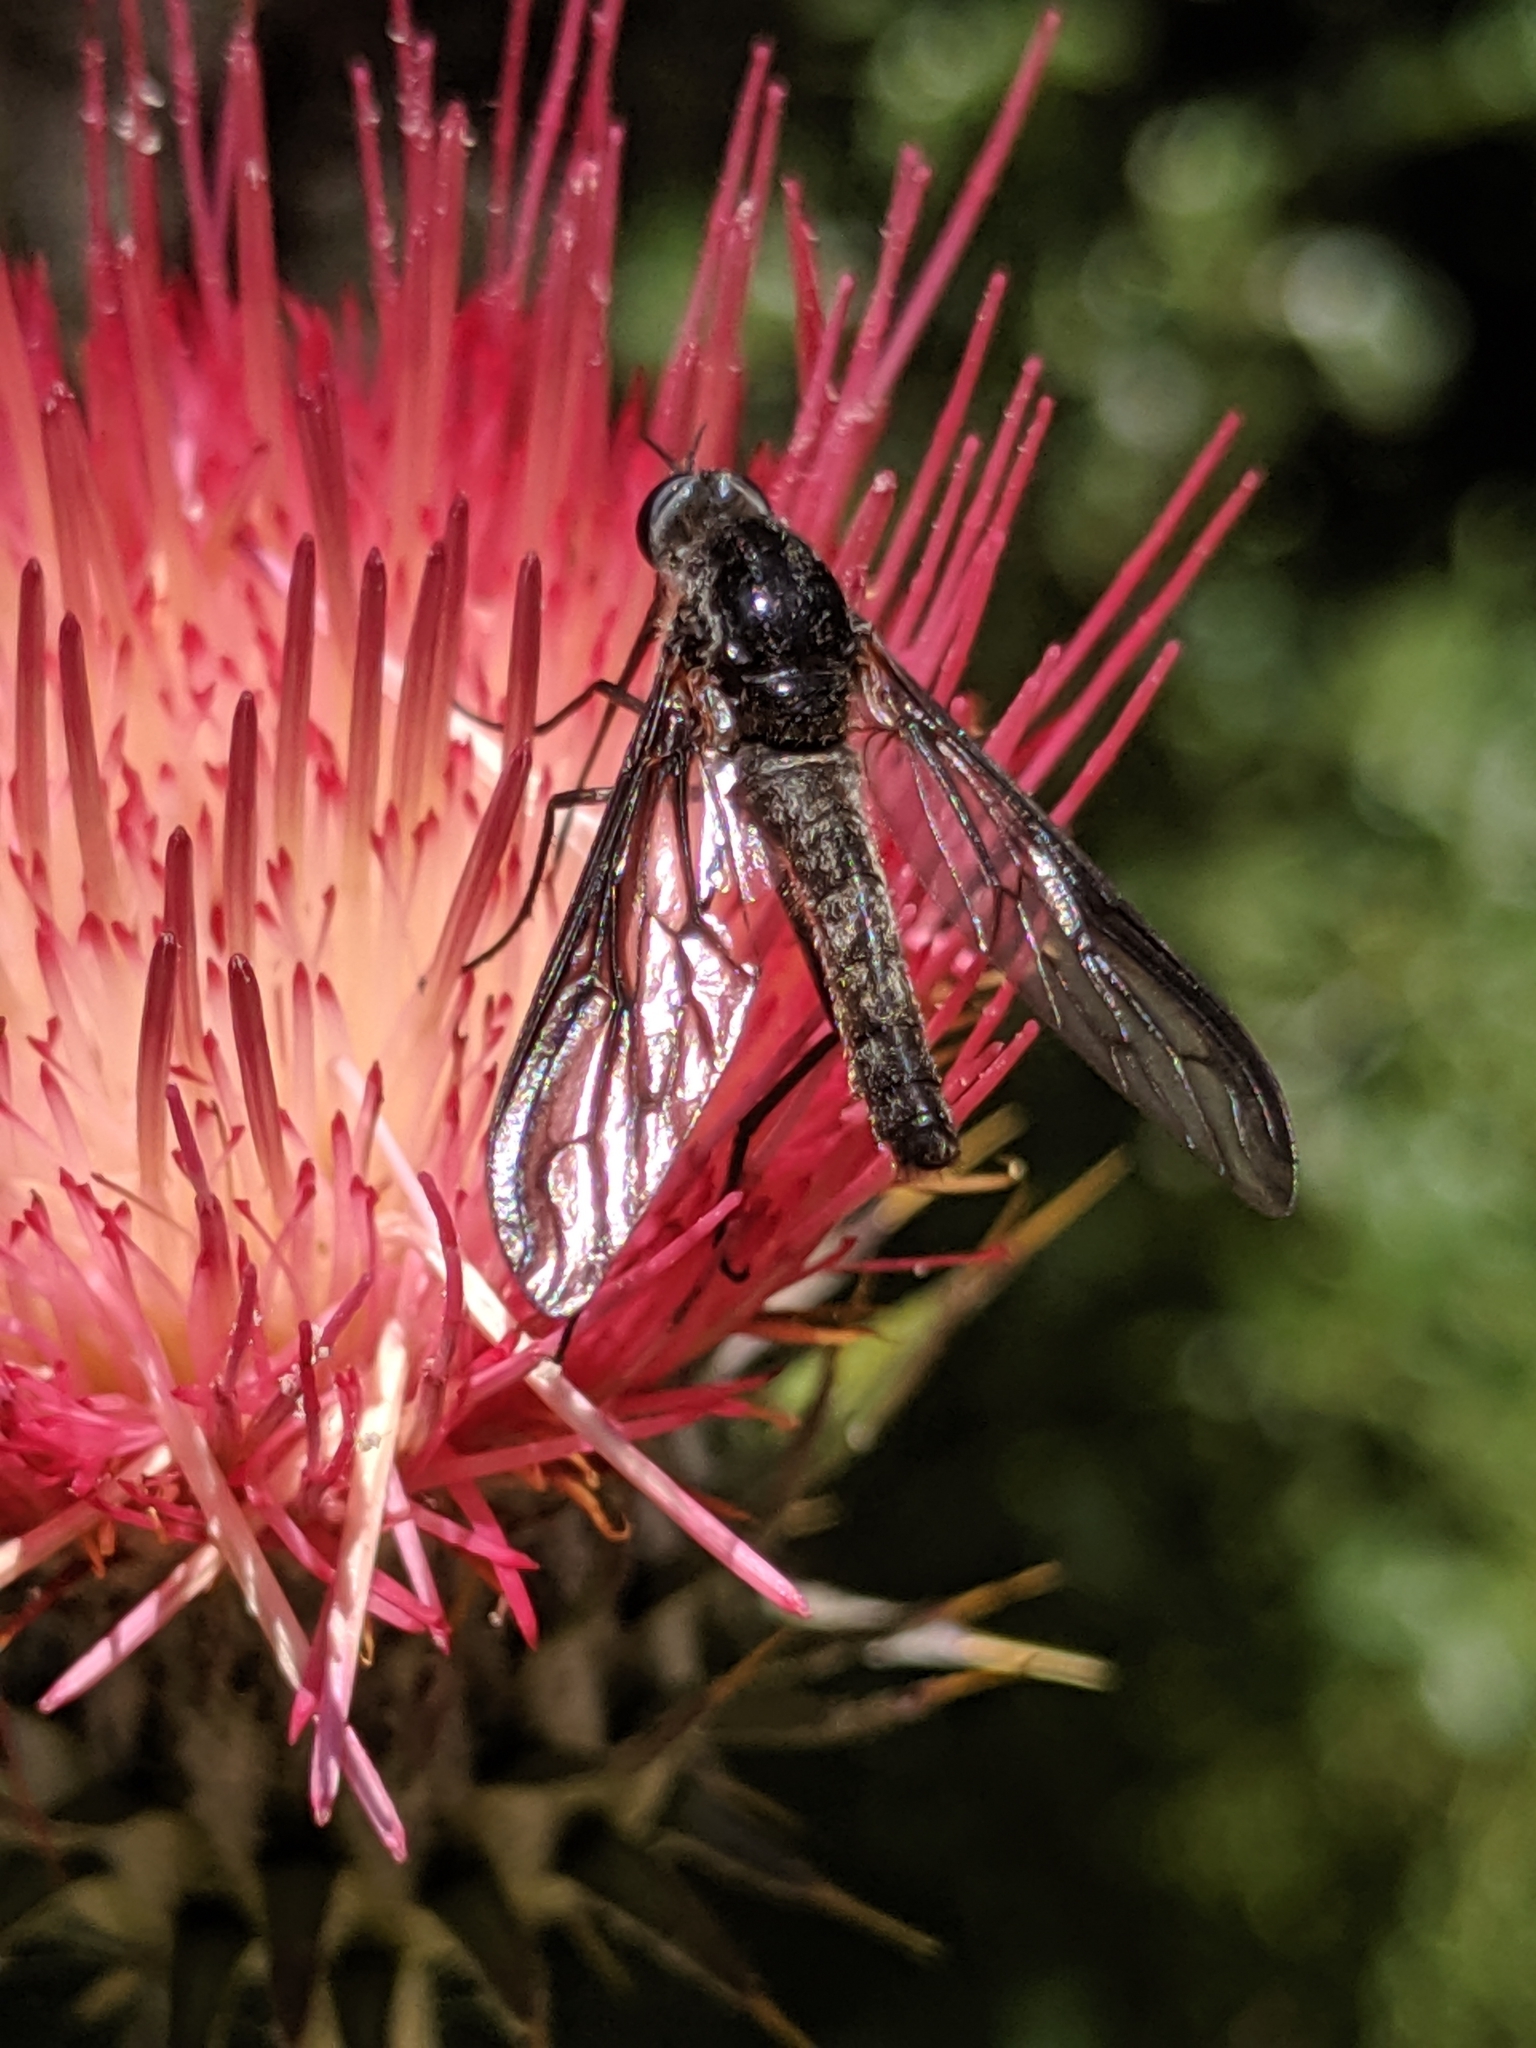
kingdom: Animalia
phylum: Arthropoda
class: Insecta
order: Diptera
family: Bombyliidae
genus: Thevenetimyia
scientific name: Thevenetimyia californica
